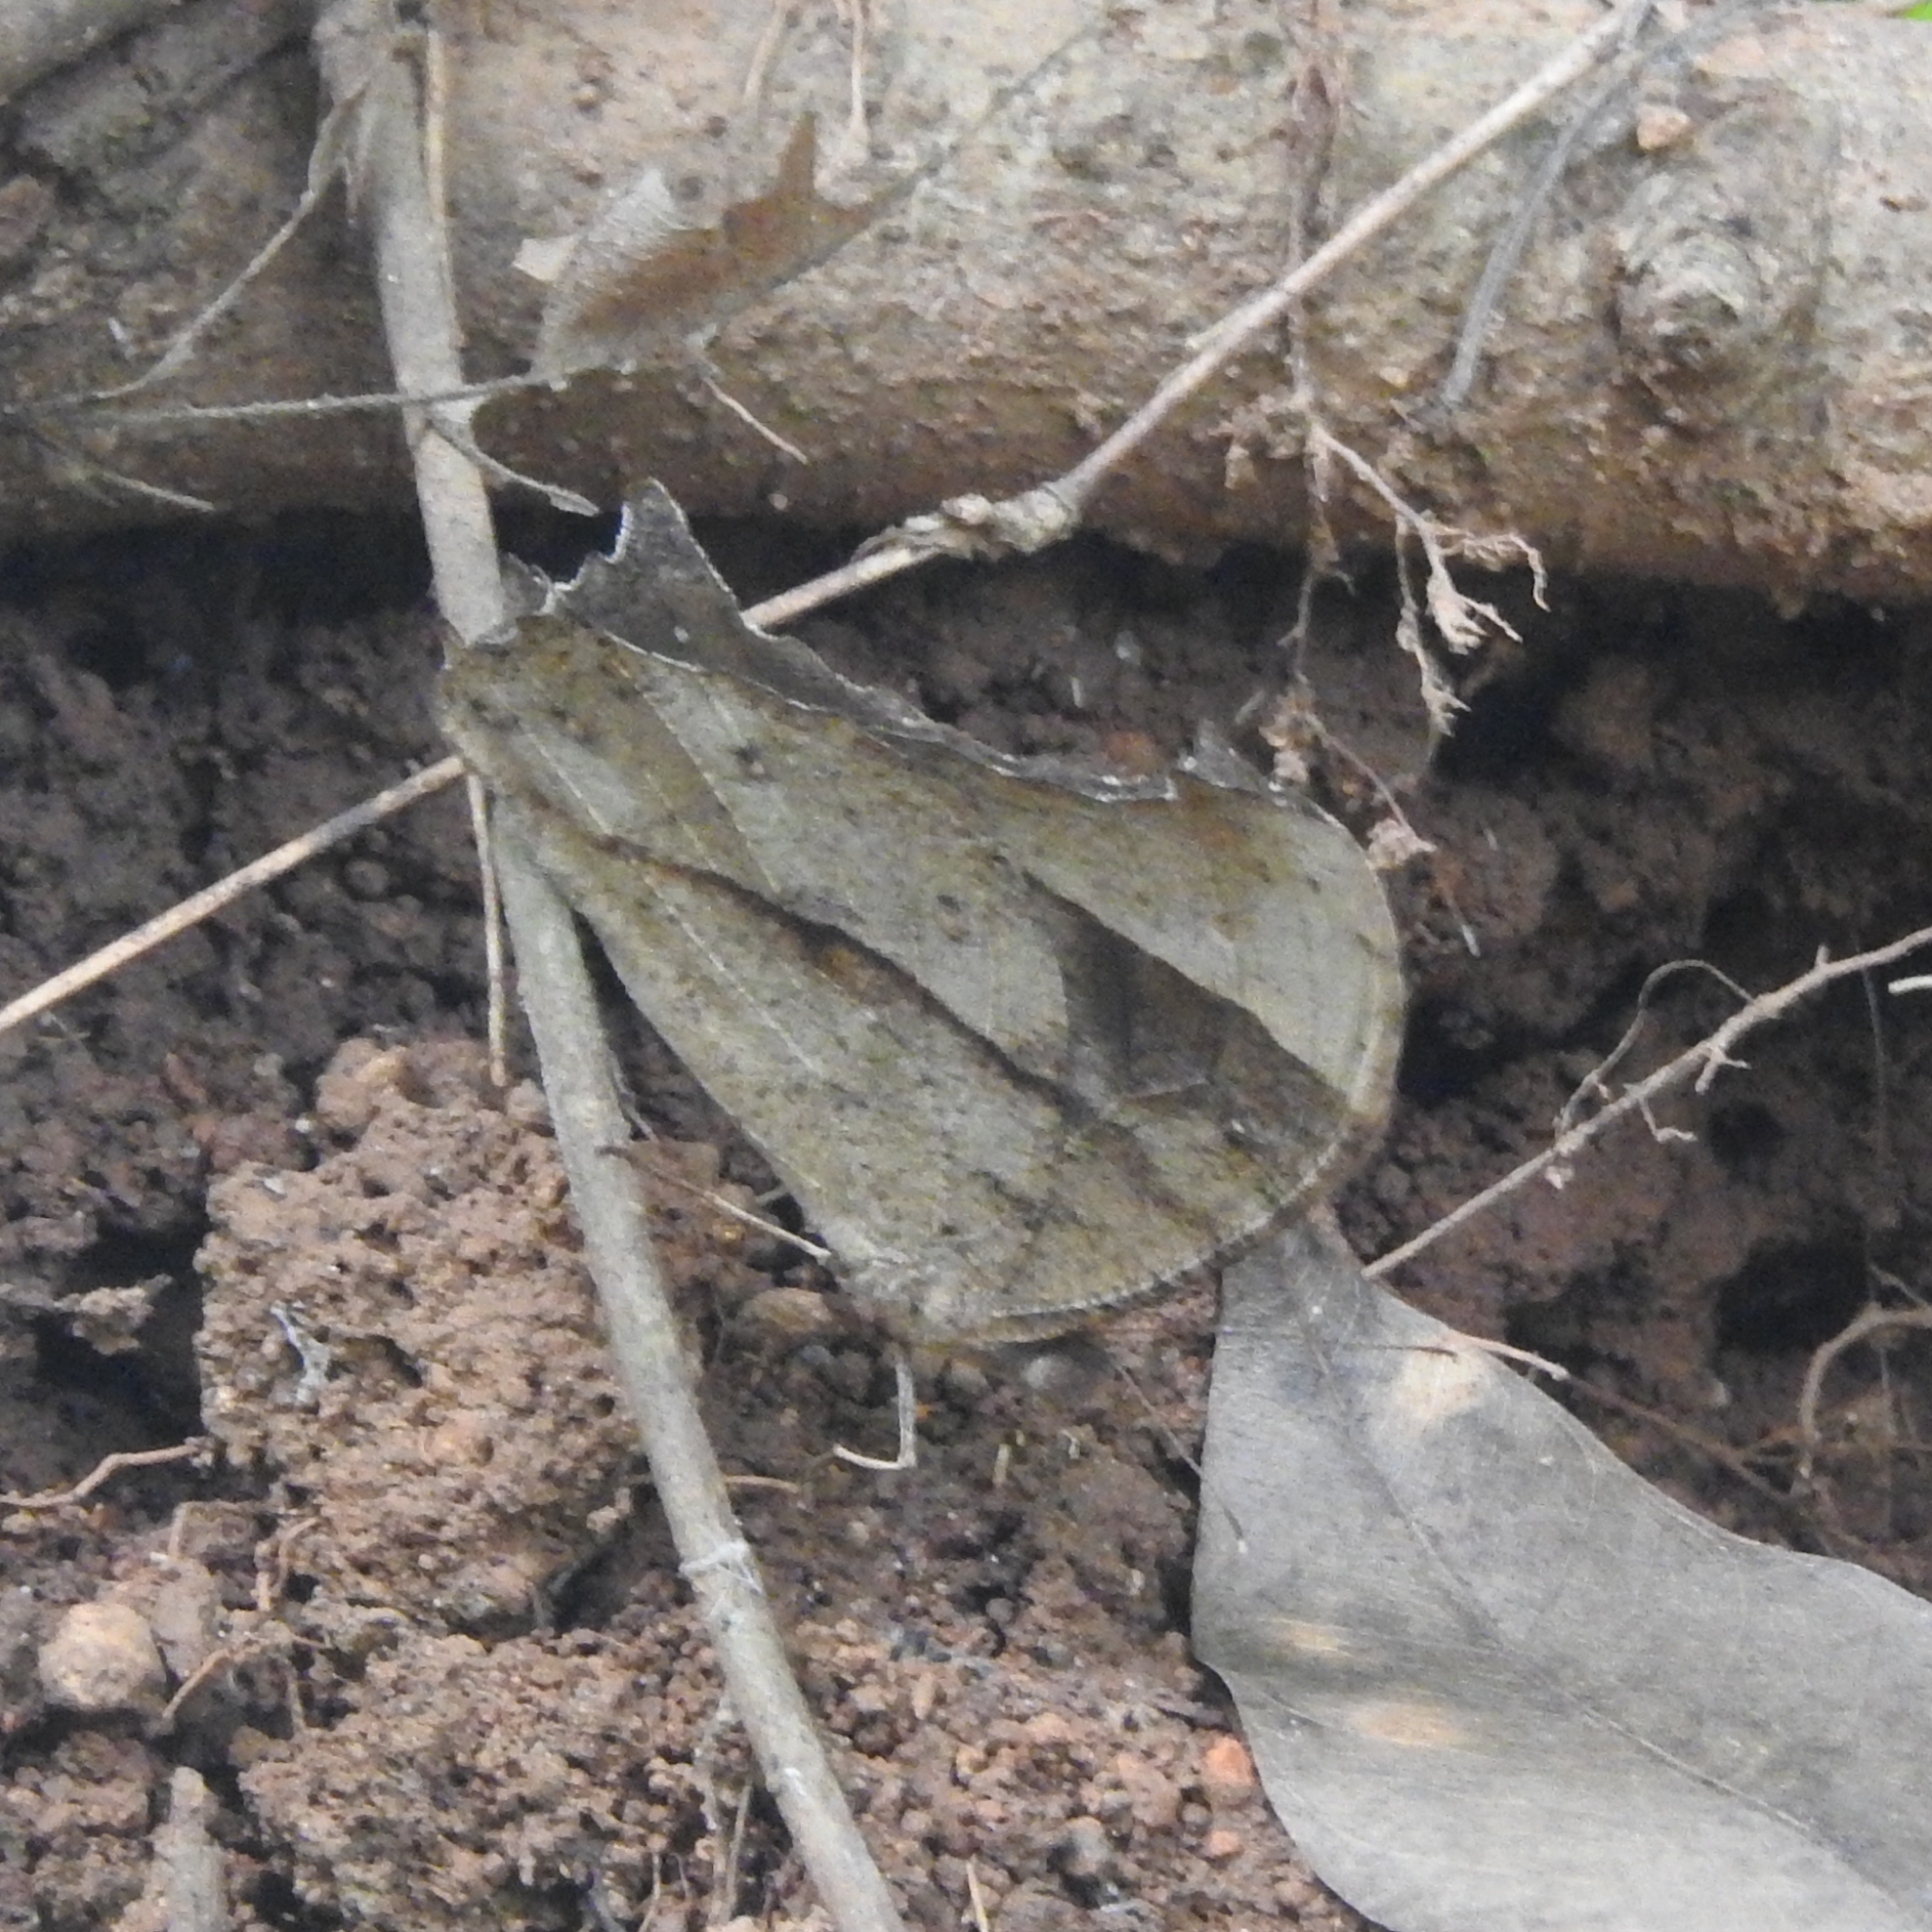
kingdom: Animalia
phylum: Arthropoda
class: Insecta
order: Lepidoptera
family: Nymphalidae
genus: Melanitis
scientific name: Melanitis leda
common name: Twilight brown
